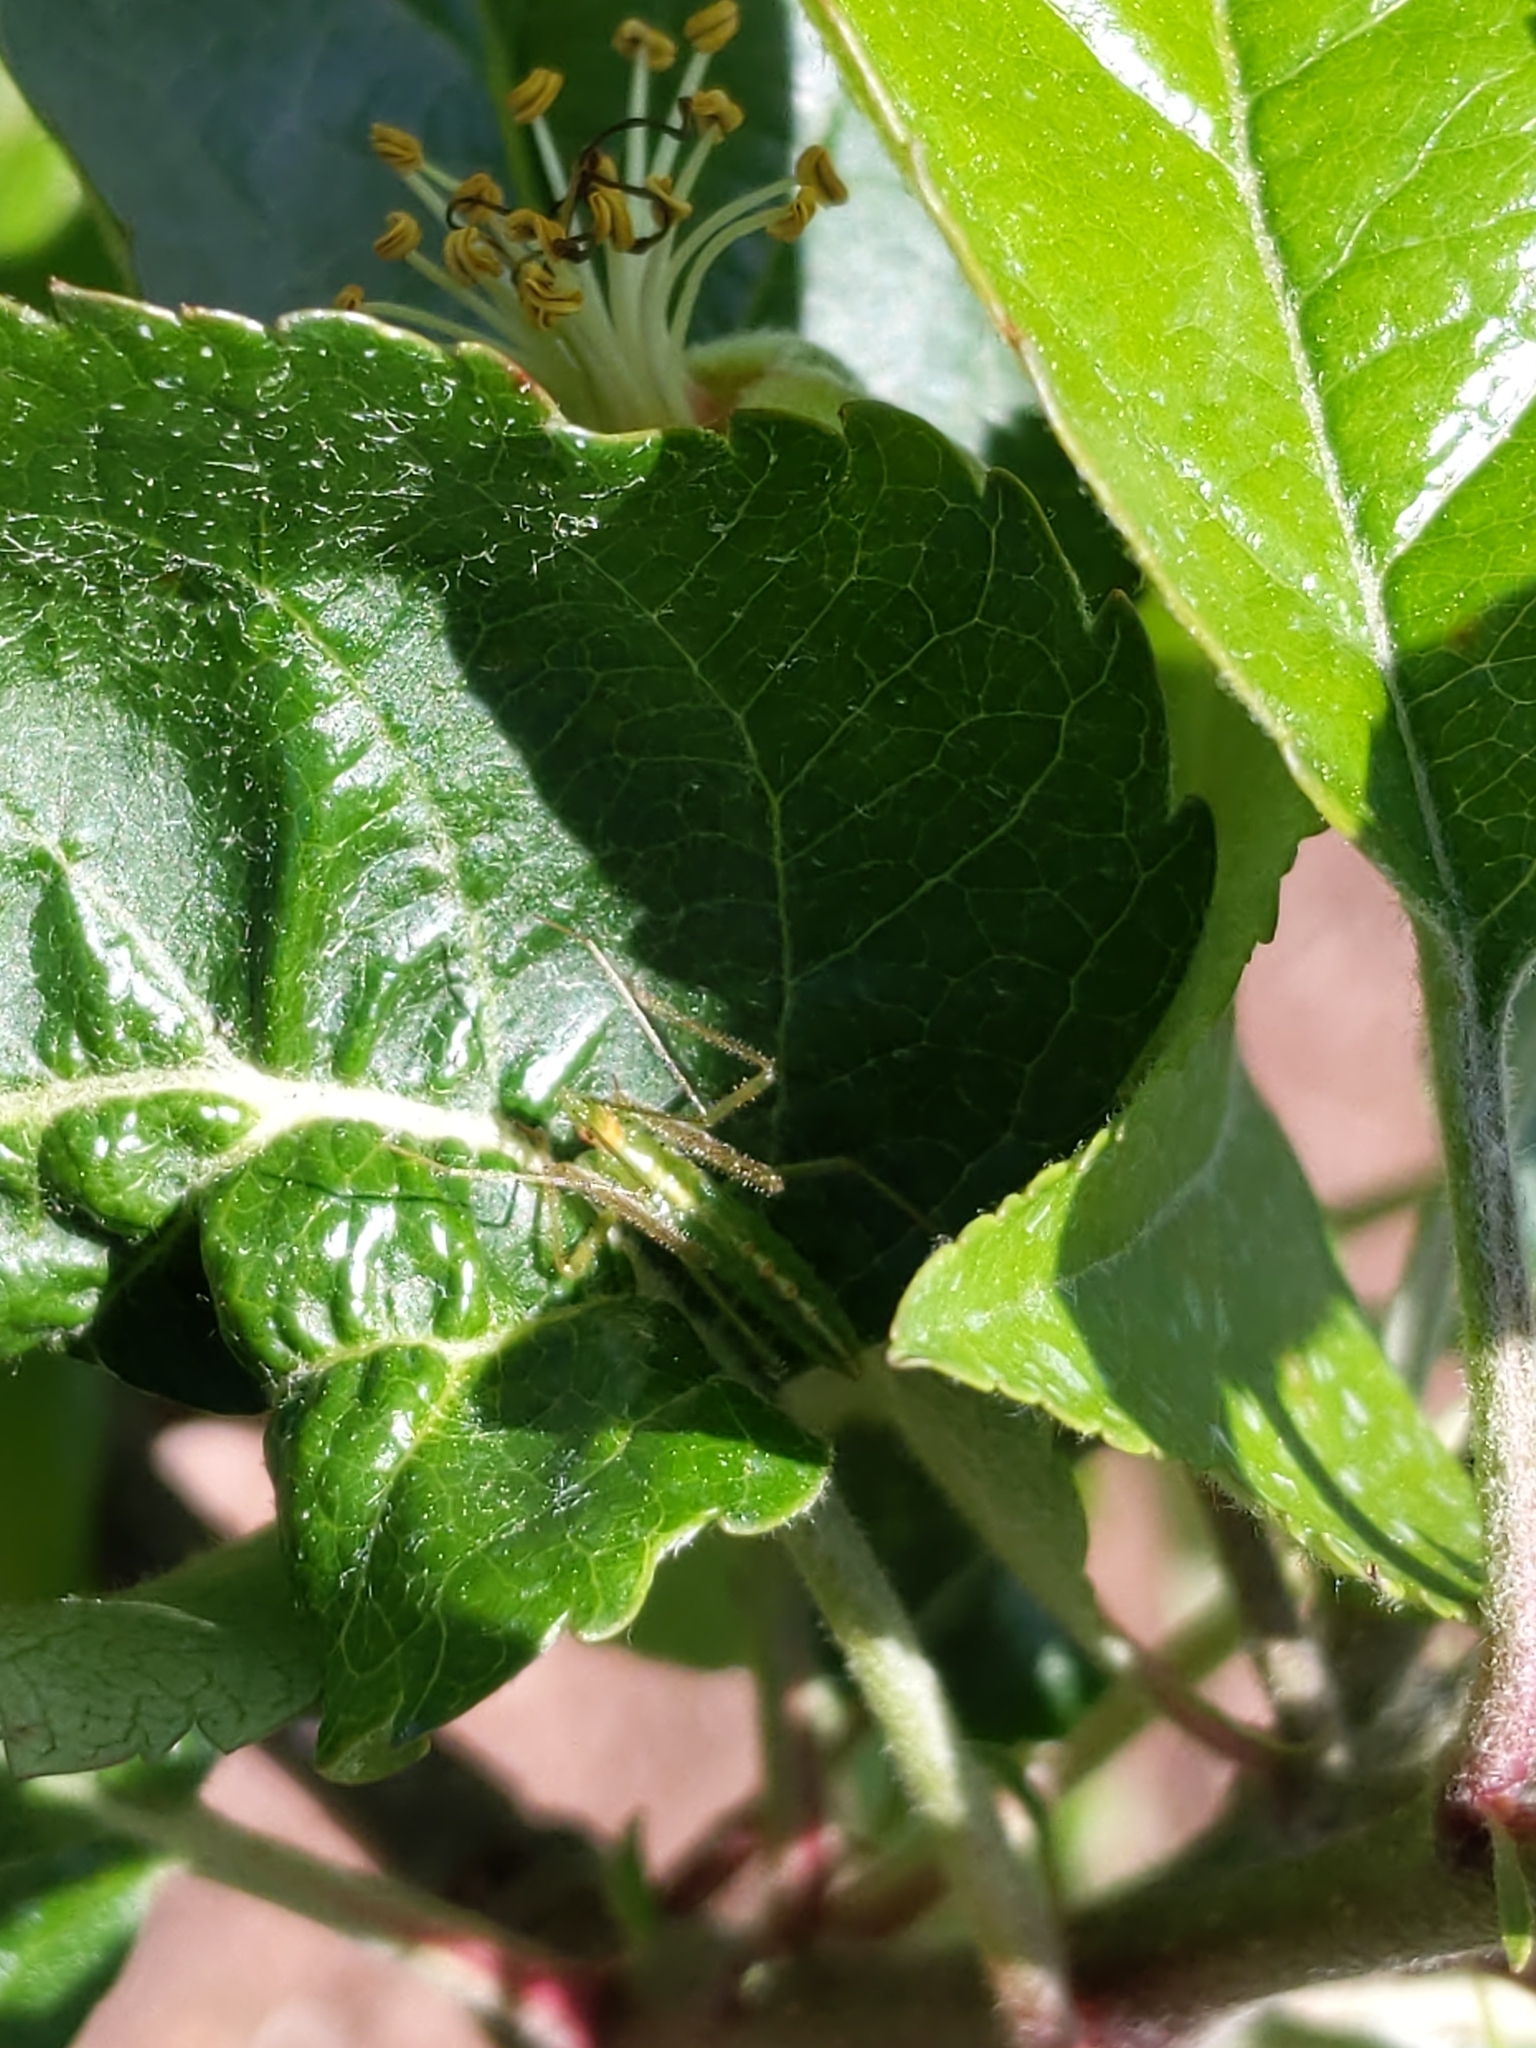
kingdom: Animalia
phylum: Arthropoda
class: Insecta
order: Hemiptera
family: Reduviidae
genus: Zelus
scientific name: Zelus luridus
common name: Pale green assassin bug
